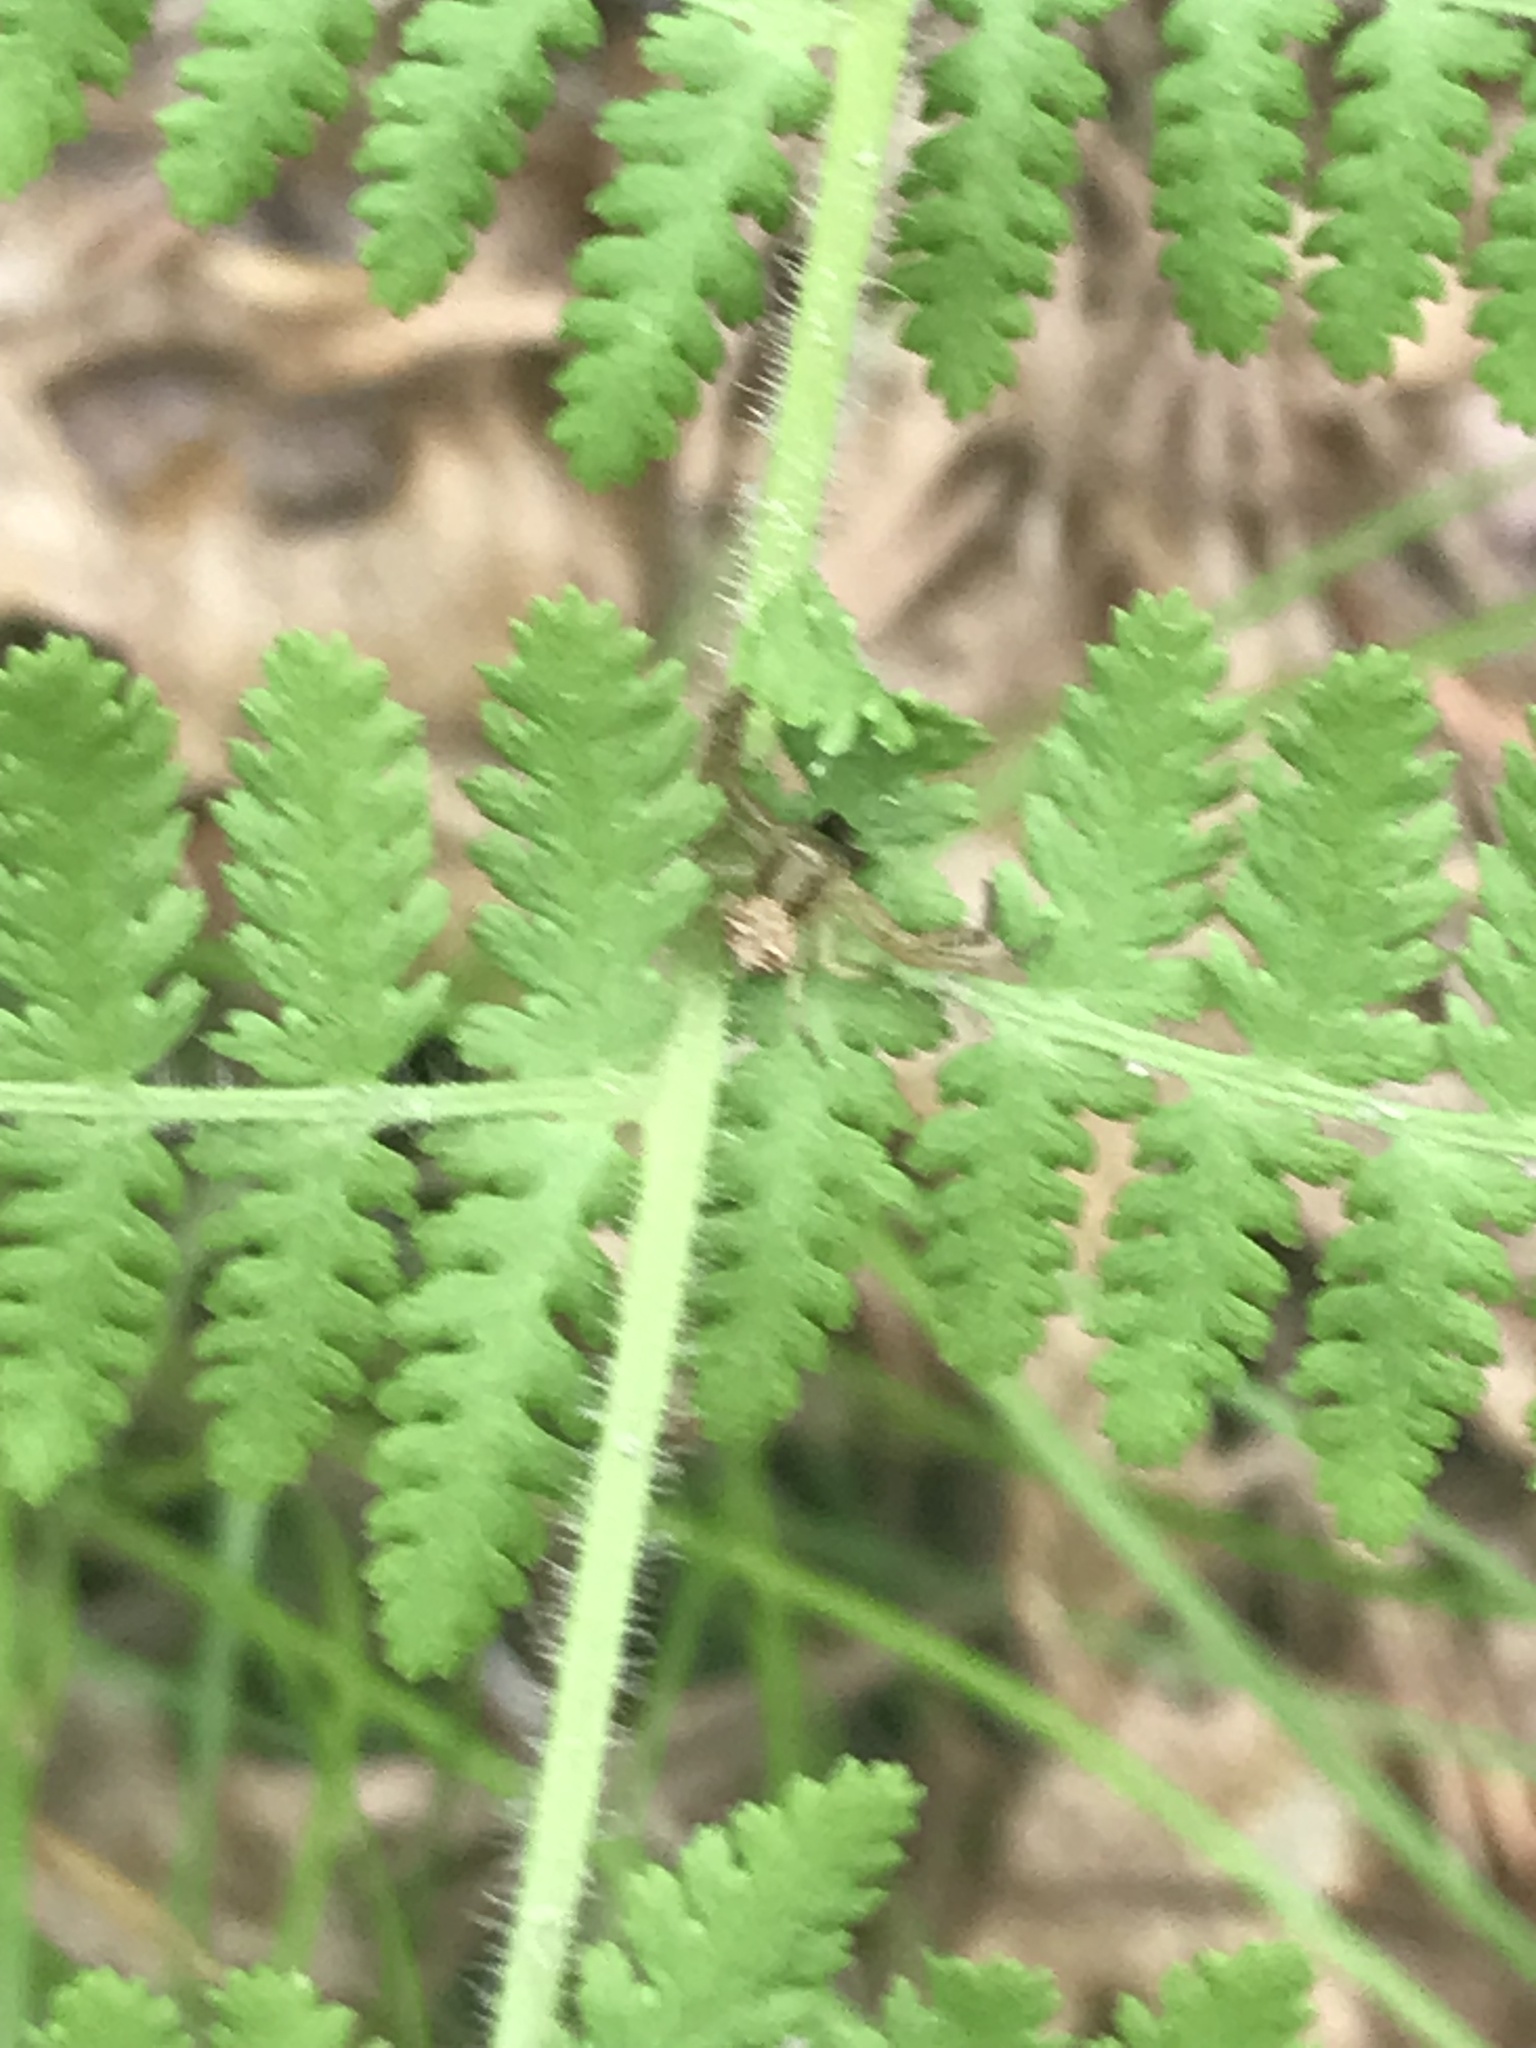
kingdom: Animalia
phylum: Arthropoda
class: Arachnida
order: Araneae
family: Thomisidae
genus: Xysticus
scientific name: Xysticus
